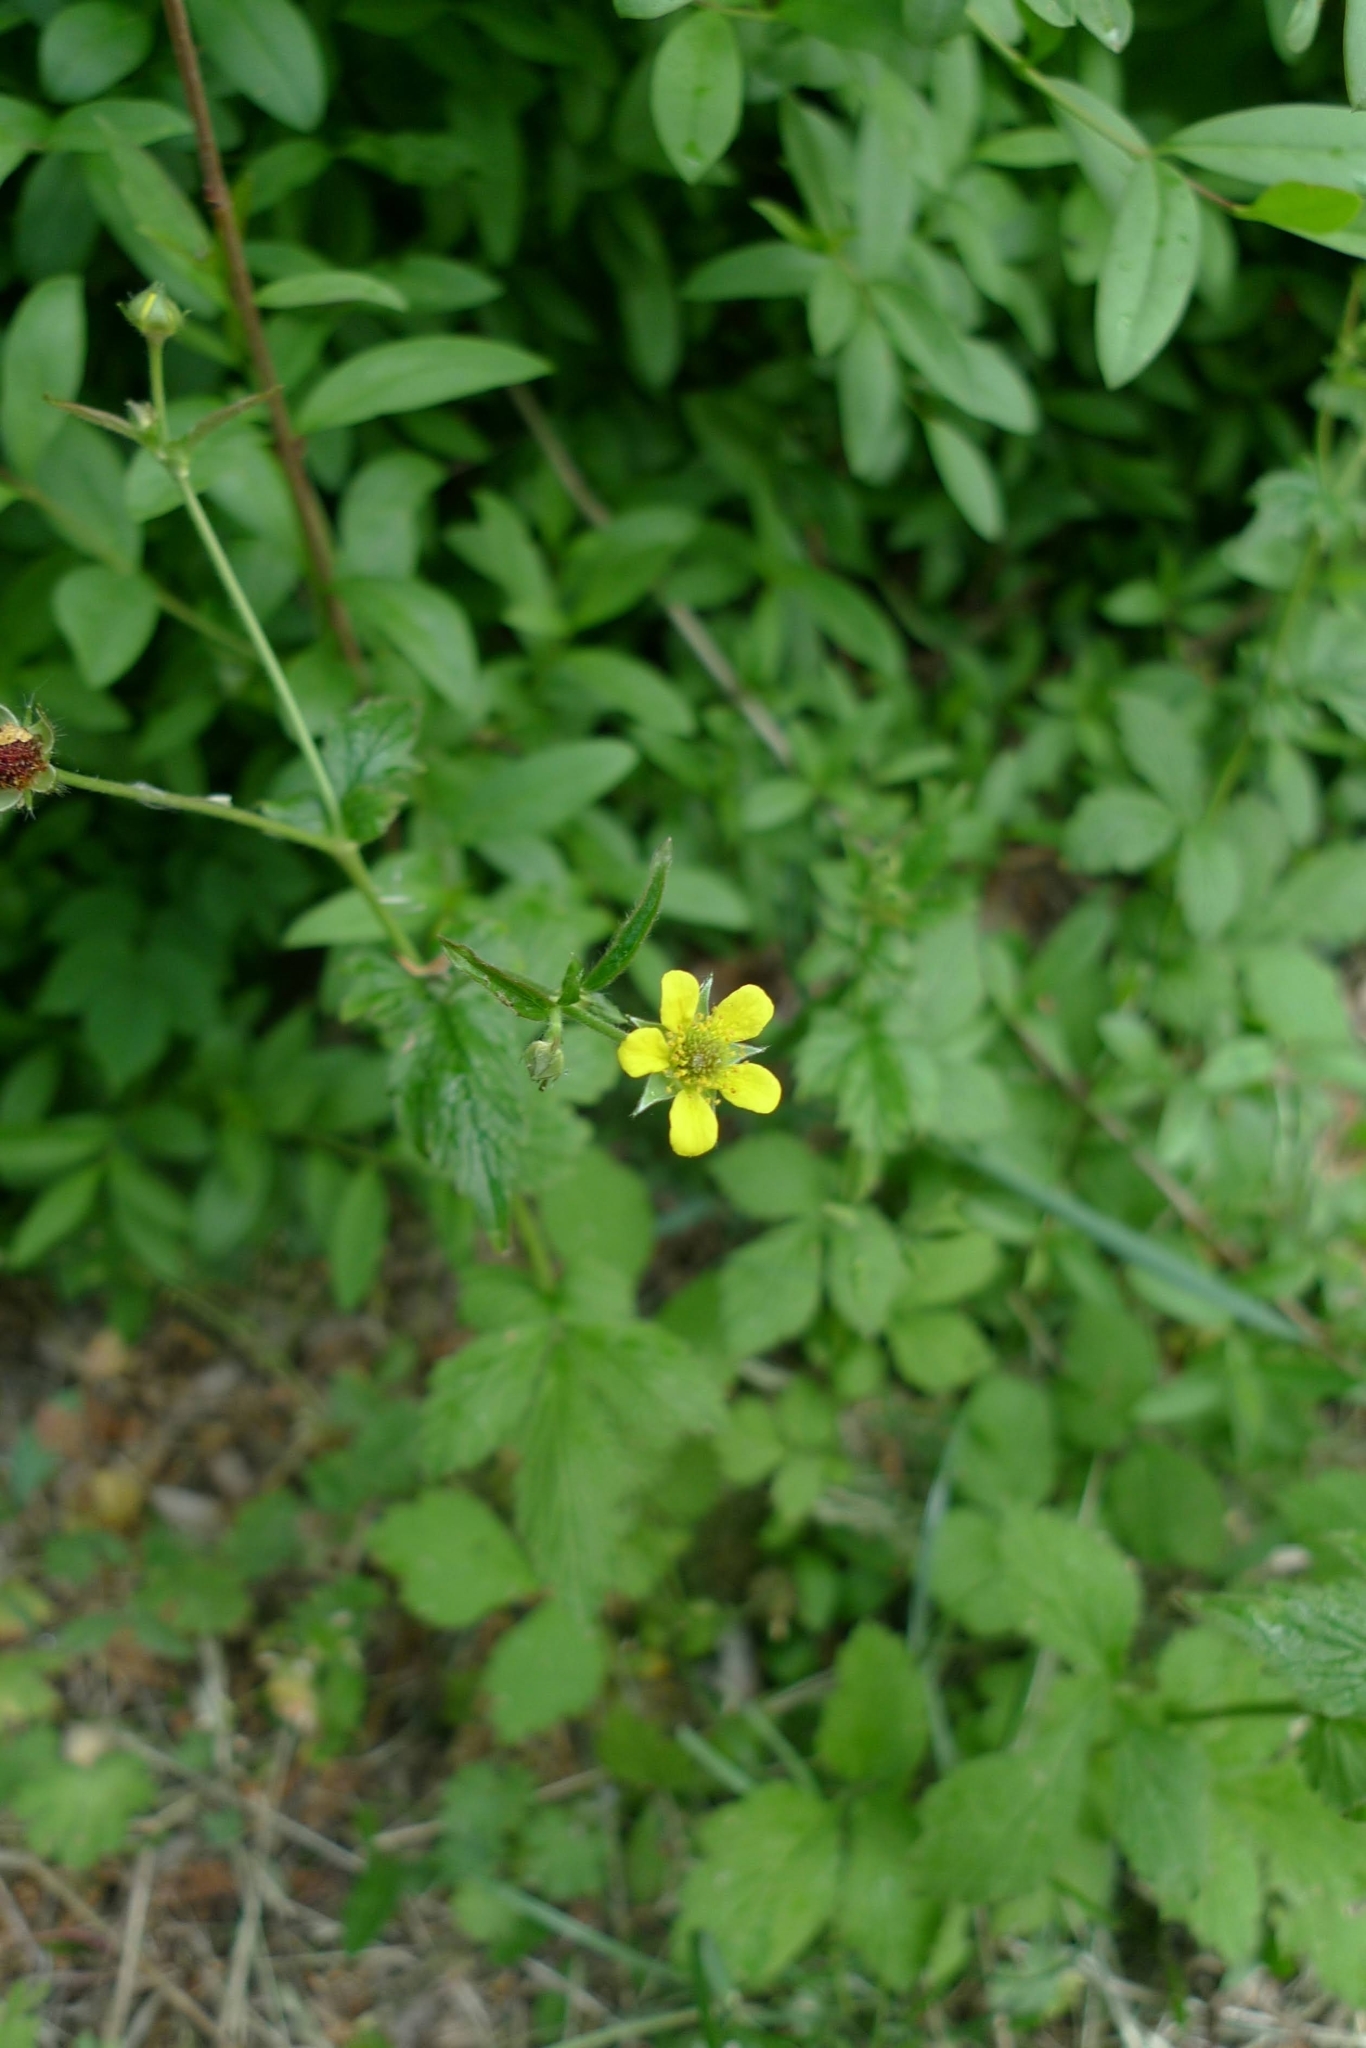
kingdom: Plantae
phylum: Tracheophyta
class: Magnoliopsida
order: Rosales
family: Rosaceae
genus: Geum
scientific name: Geum urbanum
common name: Wood avens
